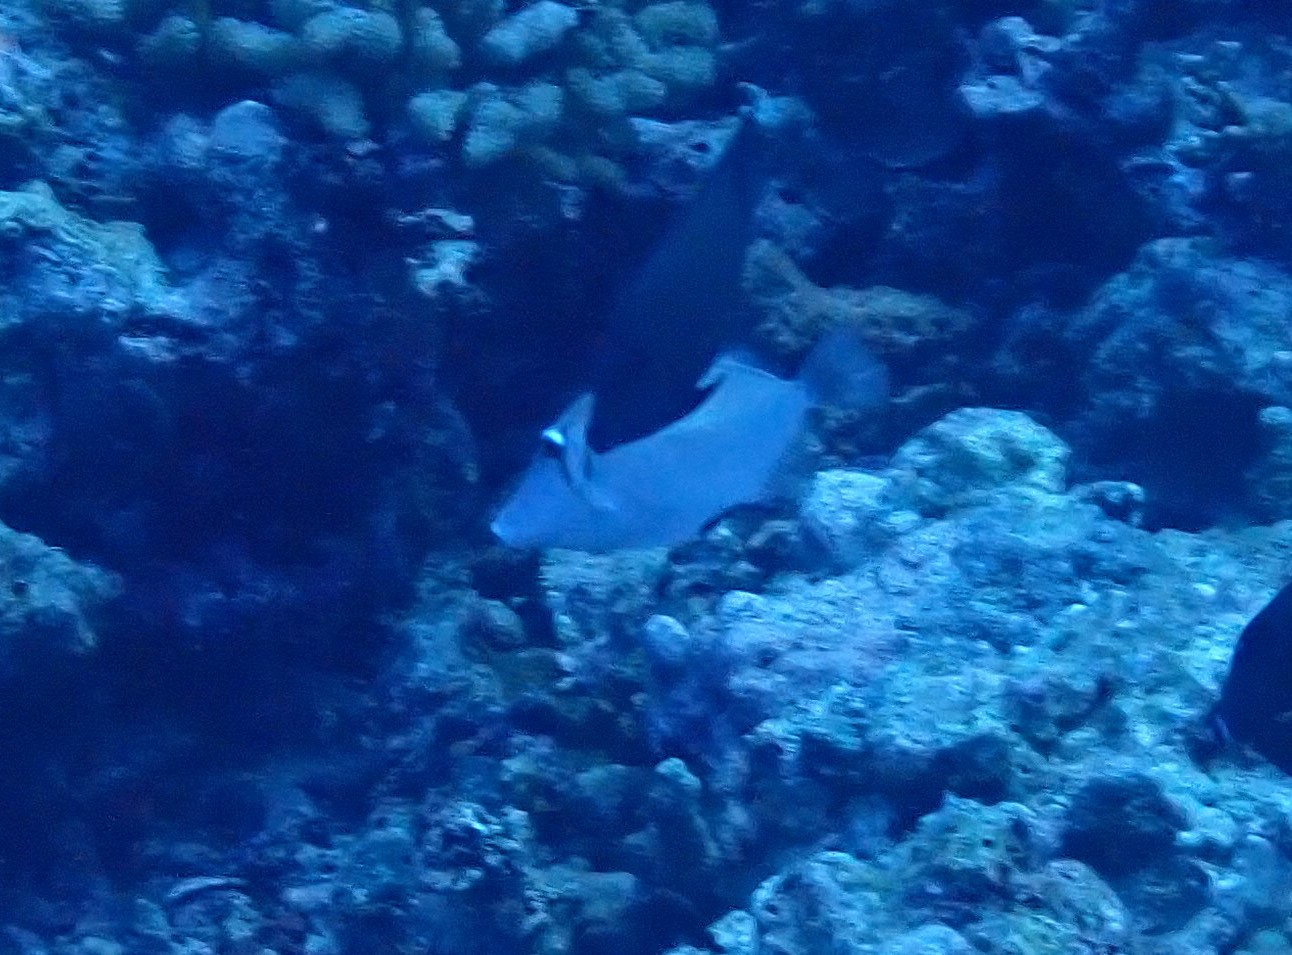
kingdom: Animalia
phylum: Chordata
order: Tetraodontiformes
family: Balistidae
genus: Sufflamen
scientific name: Sufflamen bursa
